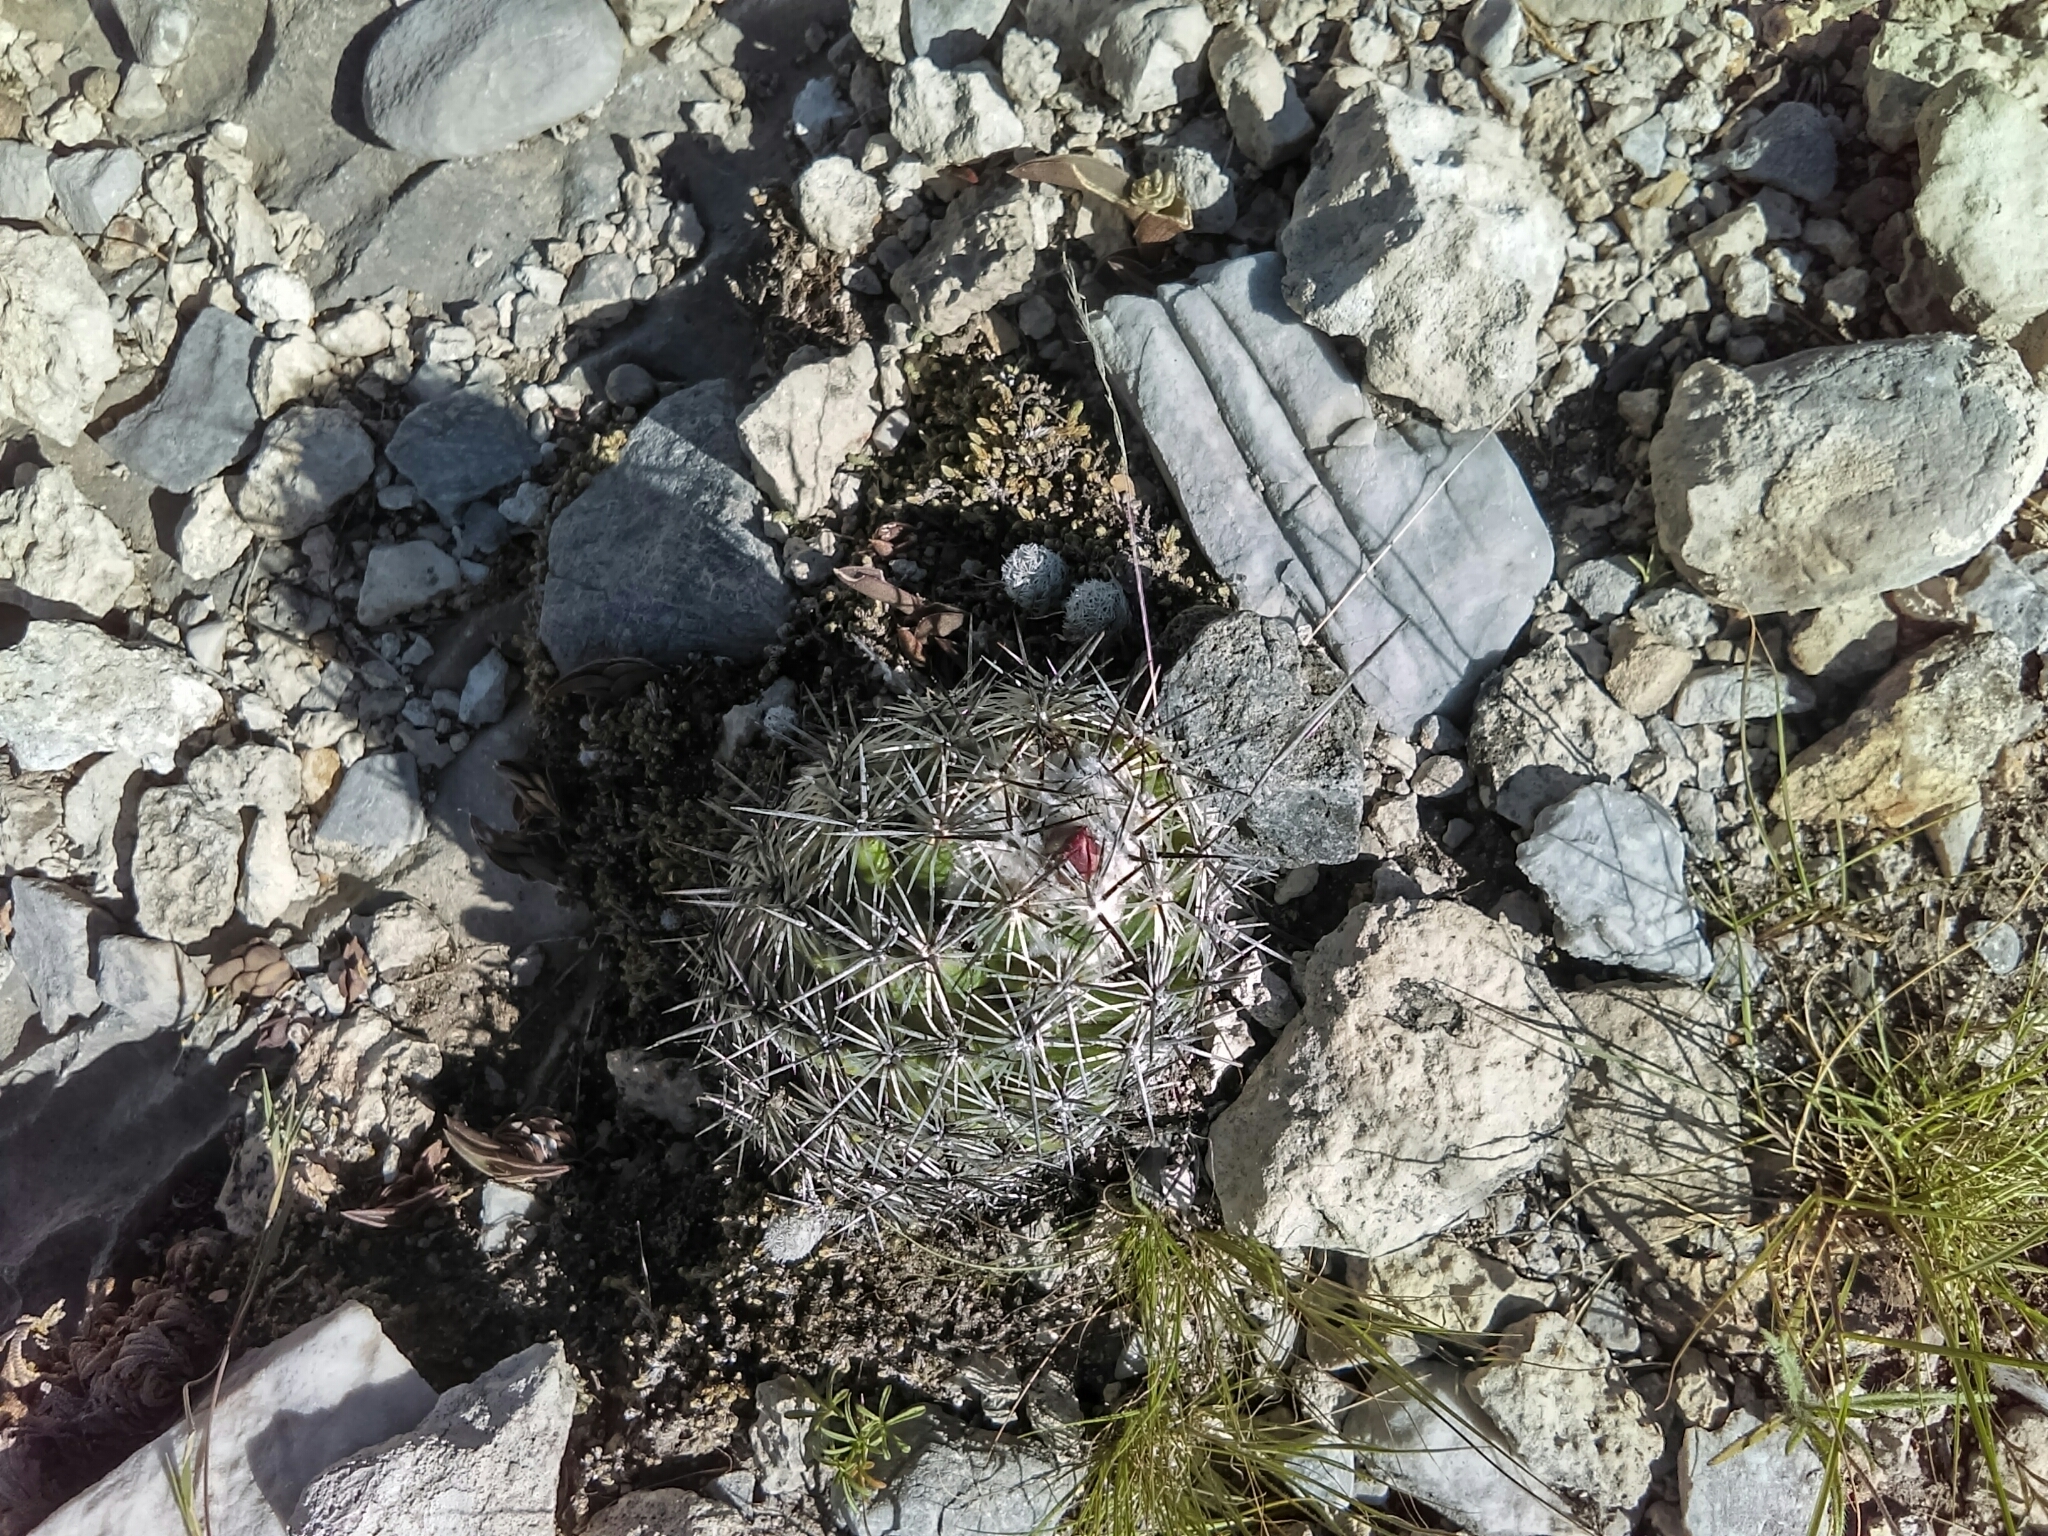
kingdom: Plantae
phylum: Tracheophyta
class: Magnoliopsida
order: Caryophyllales
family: Cactaceae
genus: Cochemiea
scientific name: Cochemiea conoidea
